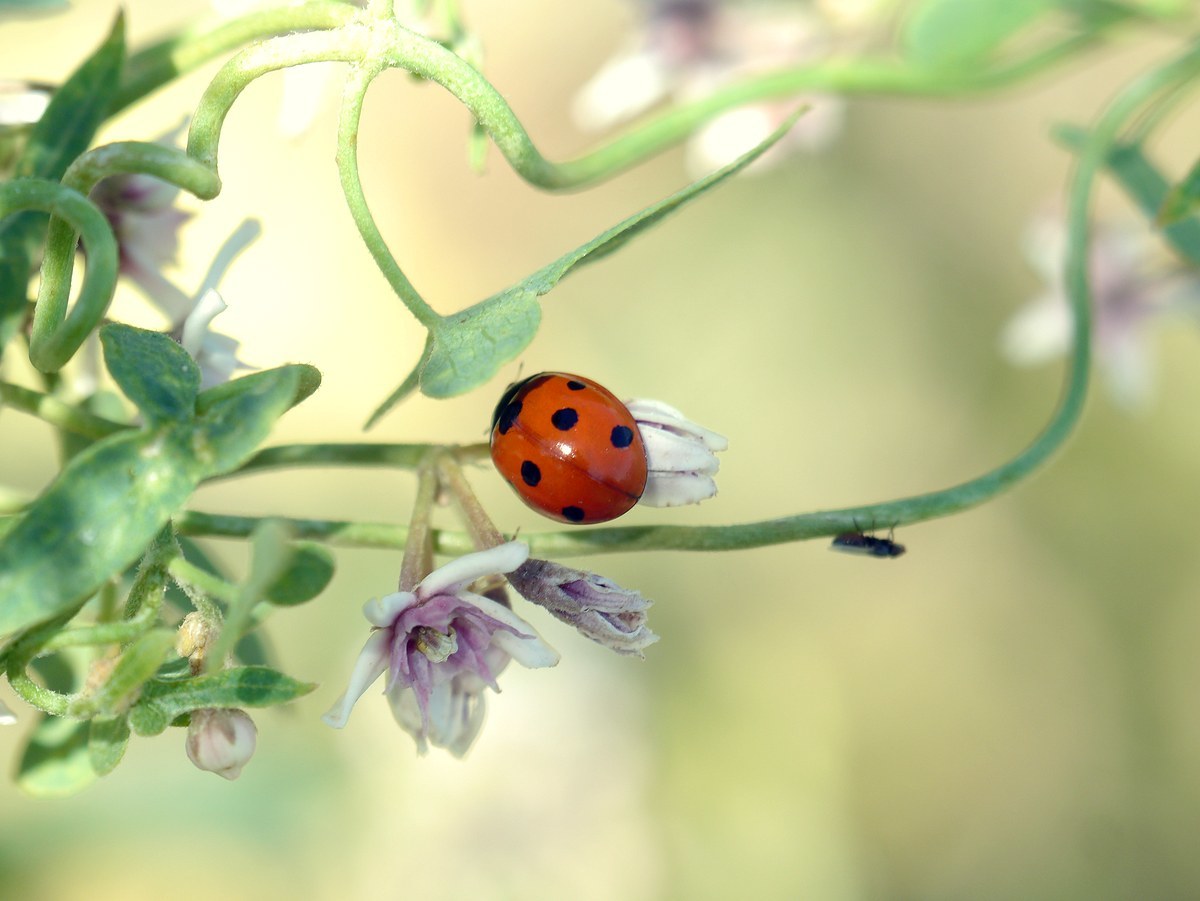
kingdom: Animalia
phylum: Arthropoda
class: Insecta
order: Coleoptera
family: Coccinellidae
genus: Coccinella
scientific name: Coccinella septempunctata
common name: Sevenspotted lady beetle
